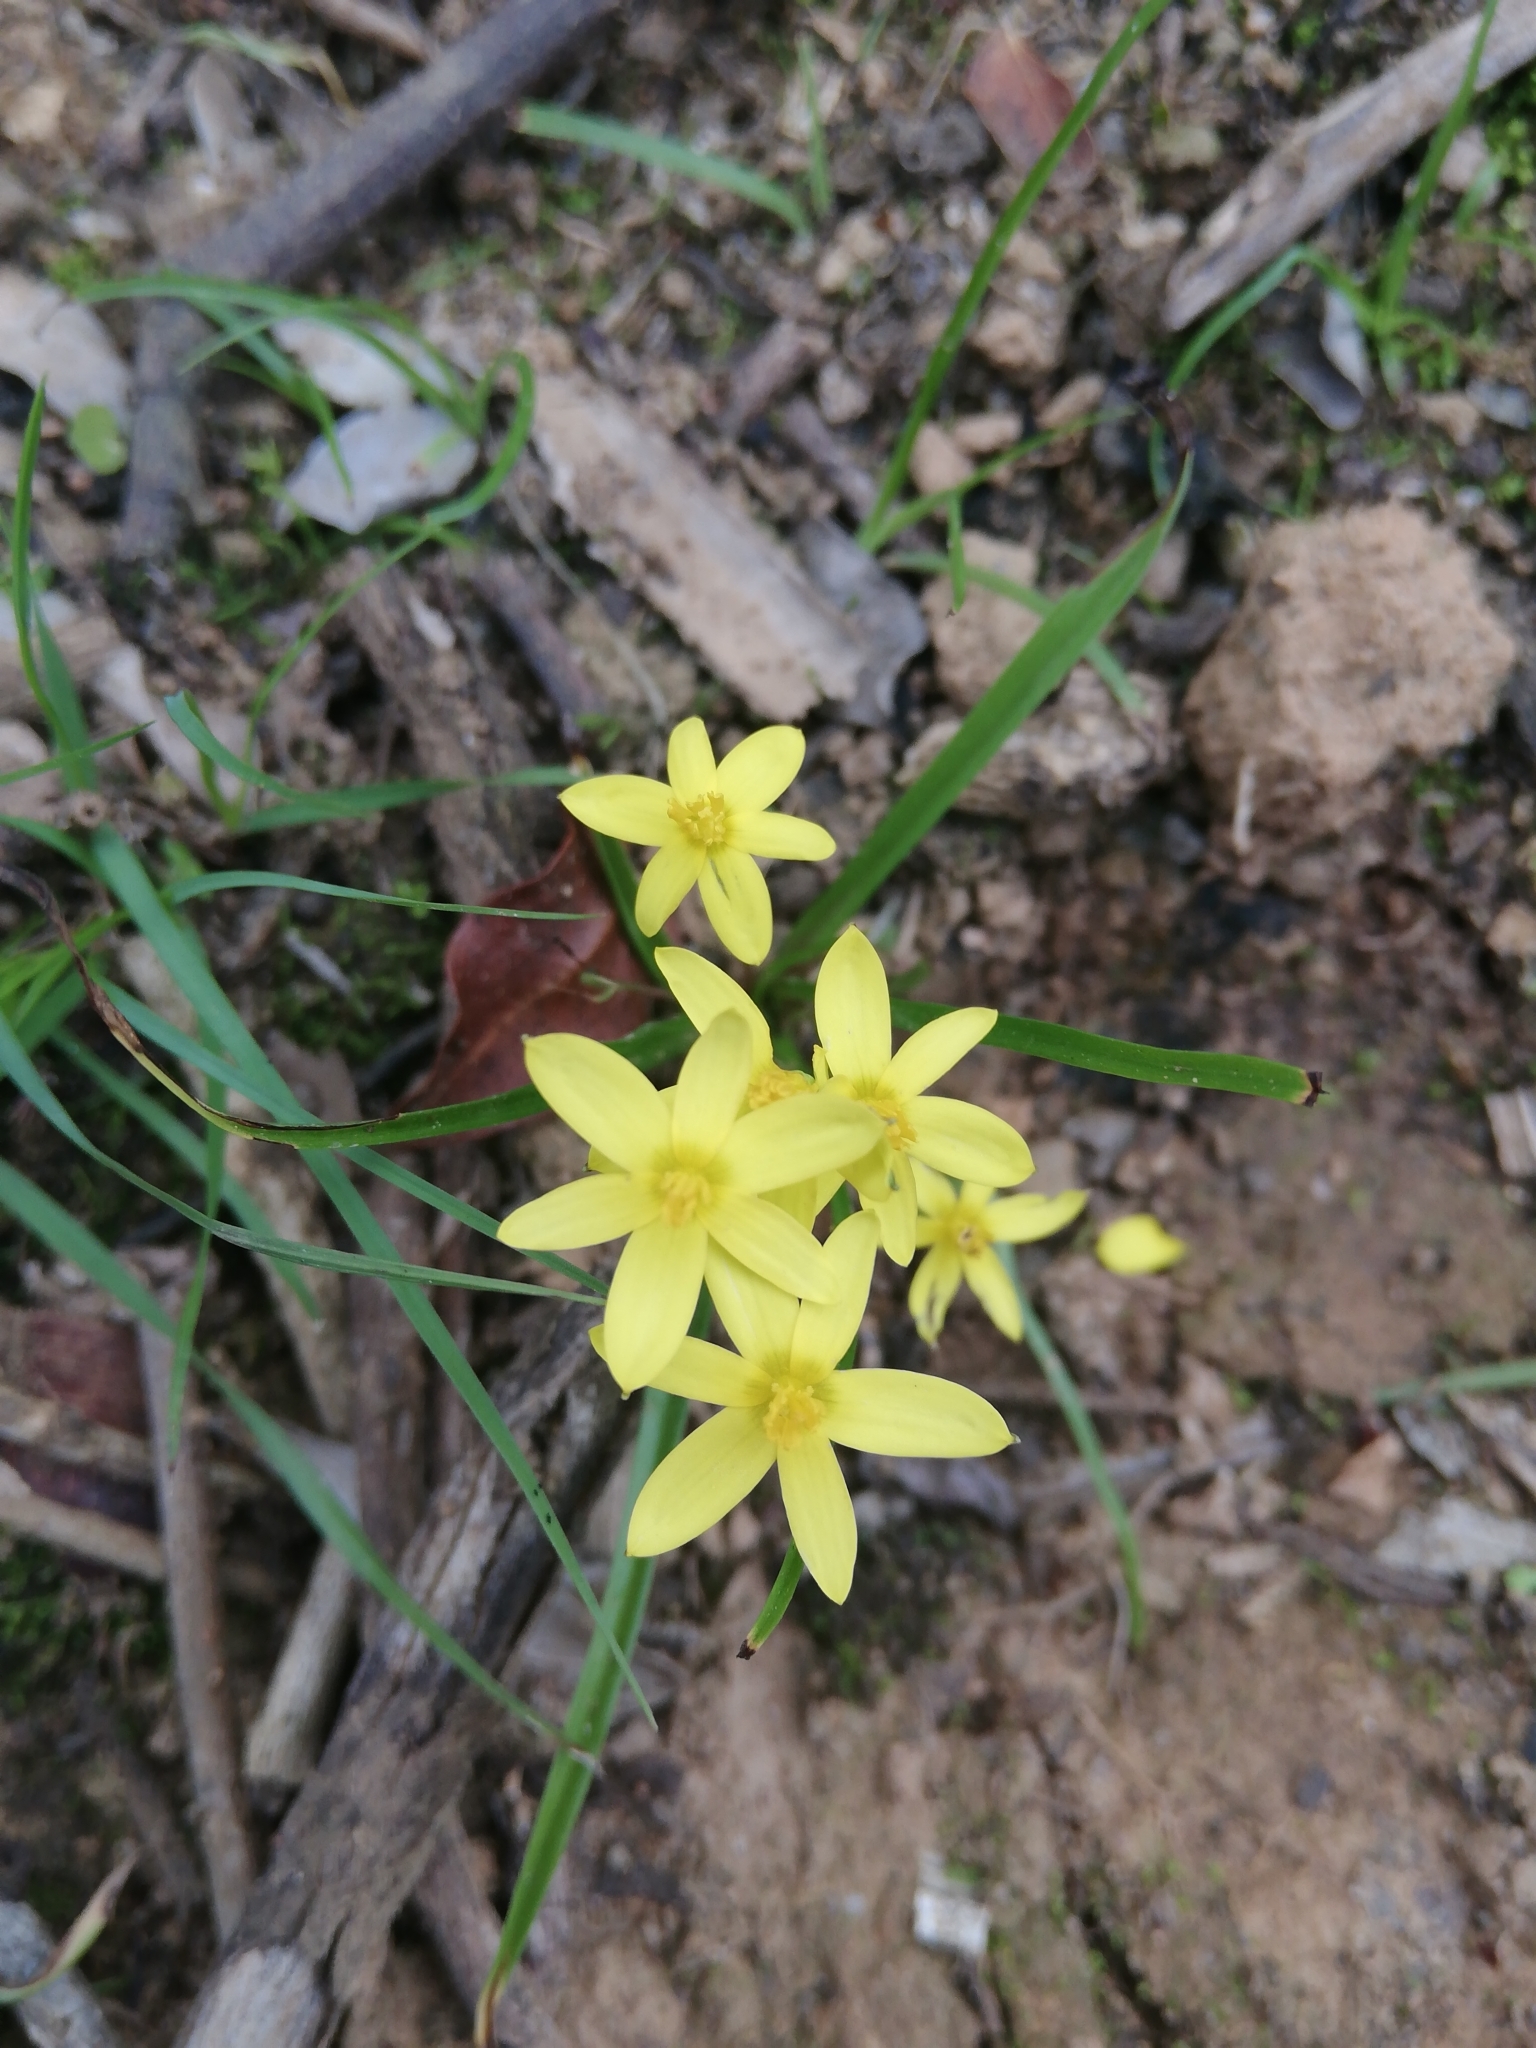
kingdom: Plantae
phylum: Tracheophyta
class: Liliopsida
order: Asparagales
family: Hypoxidaceae
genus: Pauridia
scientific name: Pauridia trifurcillata
